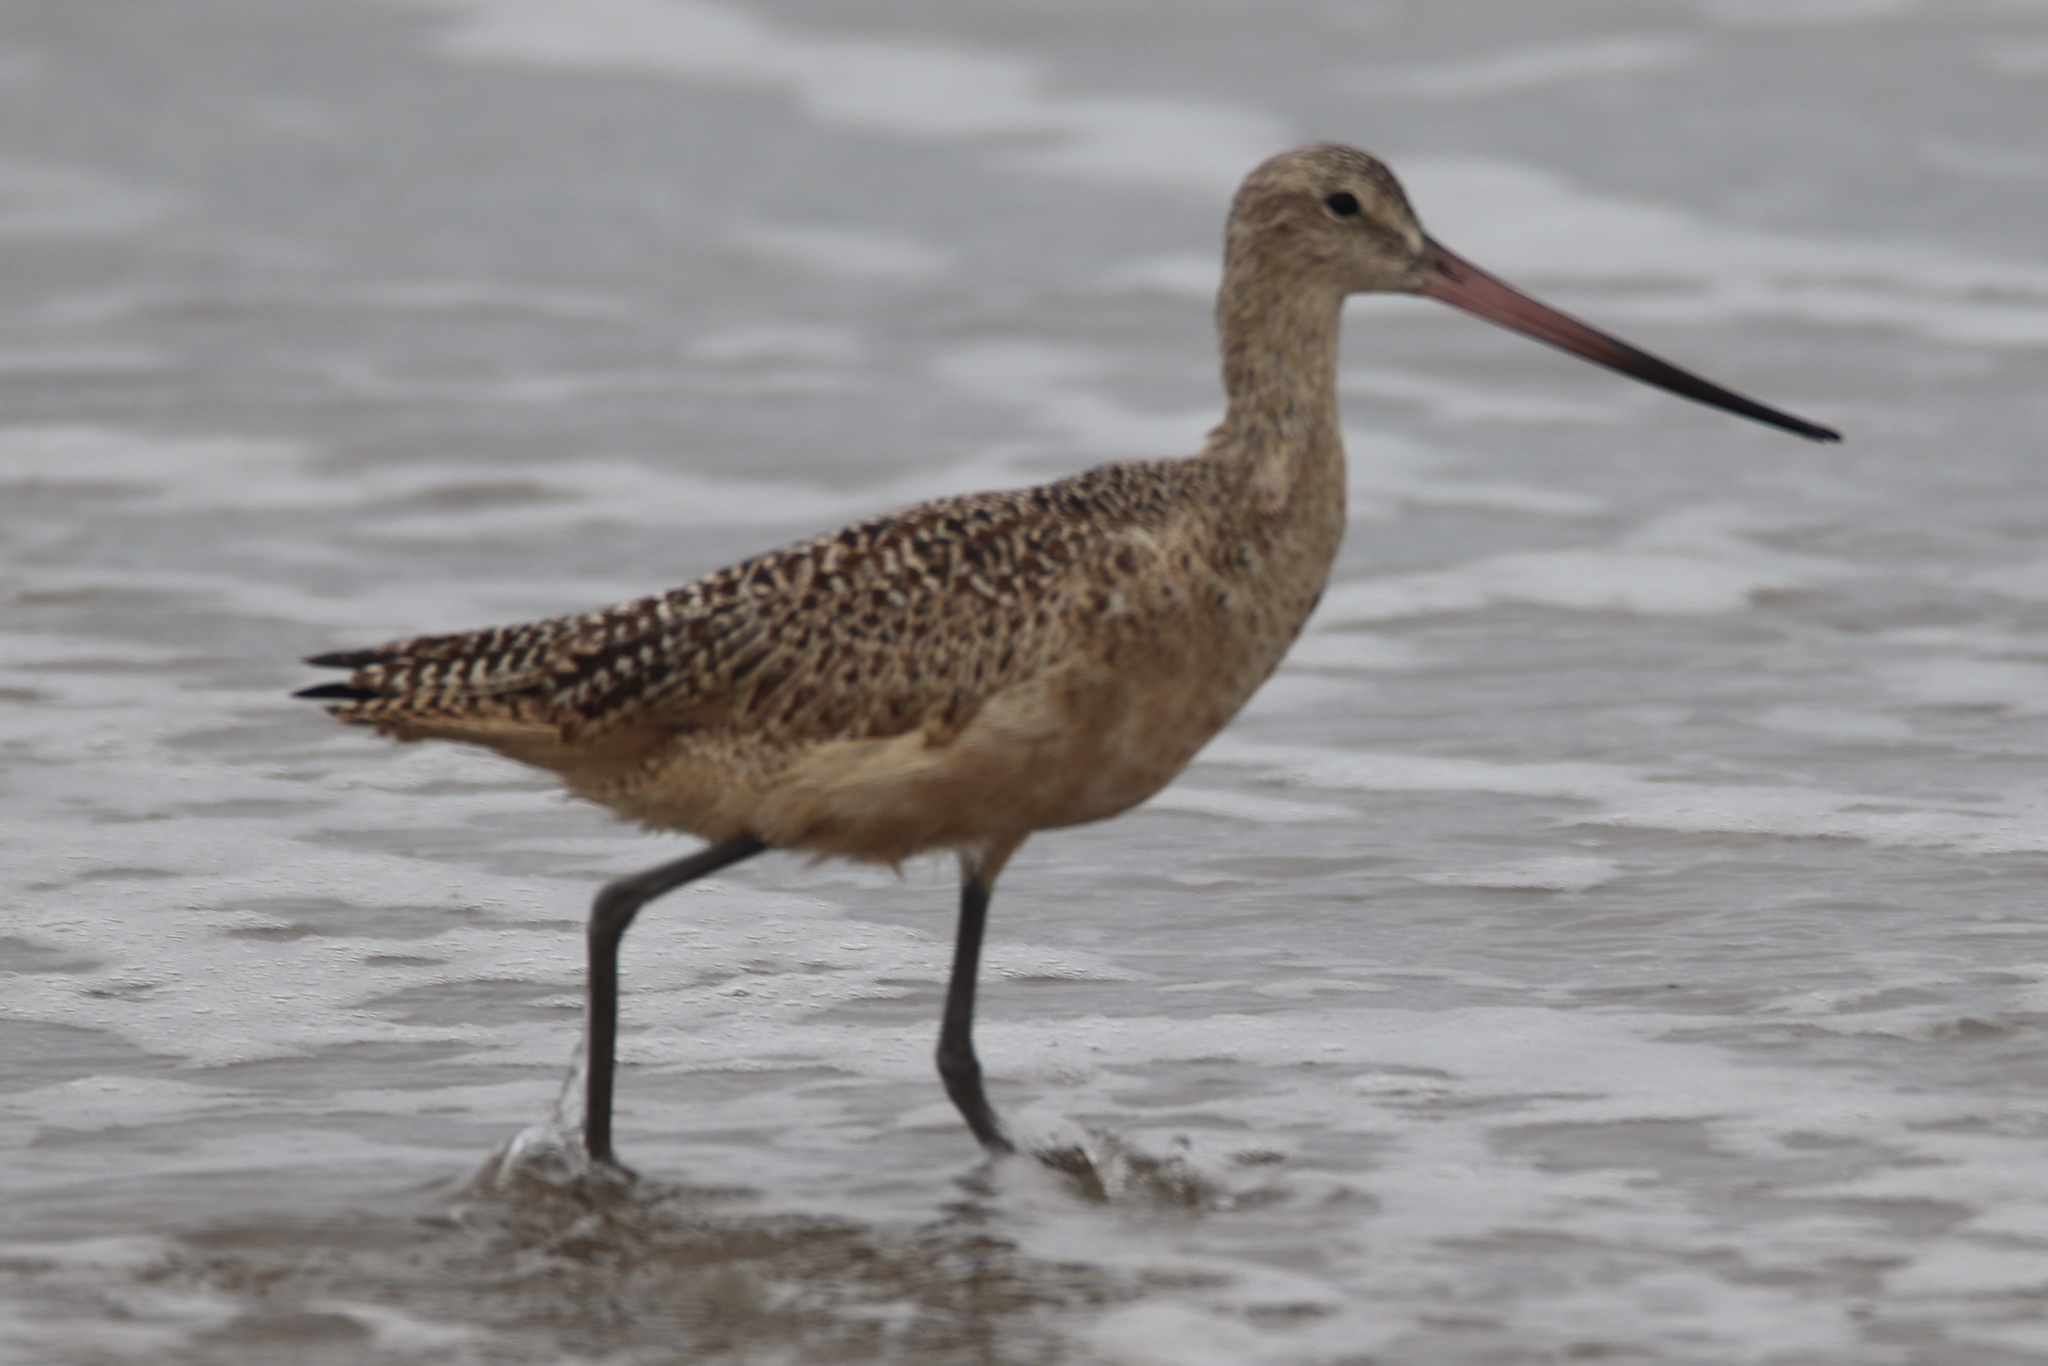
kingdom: Animalia
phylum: Chordata
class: Aves
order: Charadriiformes
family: Scolopacidae
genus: Limosa
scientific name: Limosa fedoa
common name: Marbled godwit
